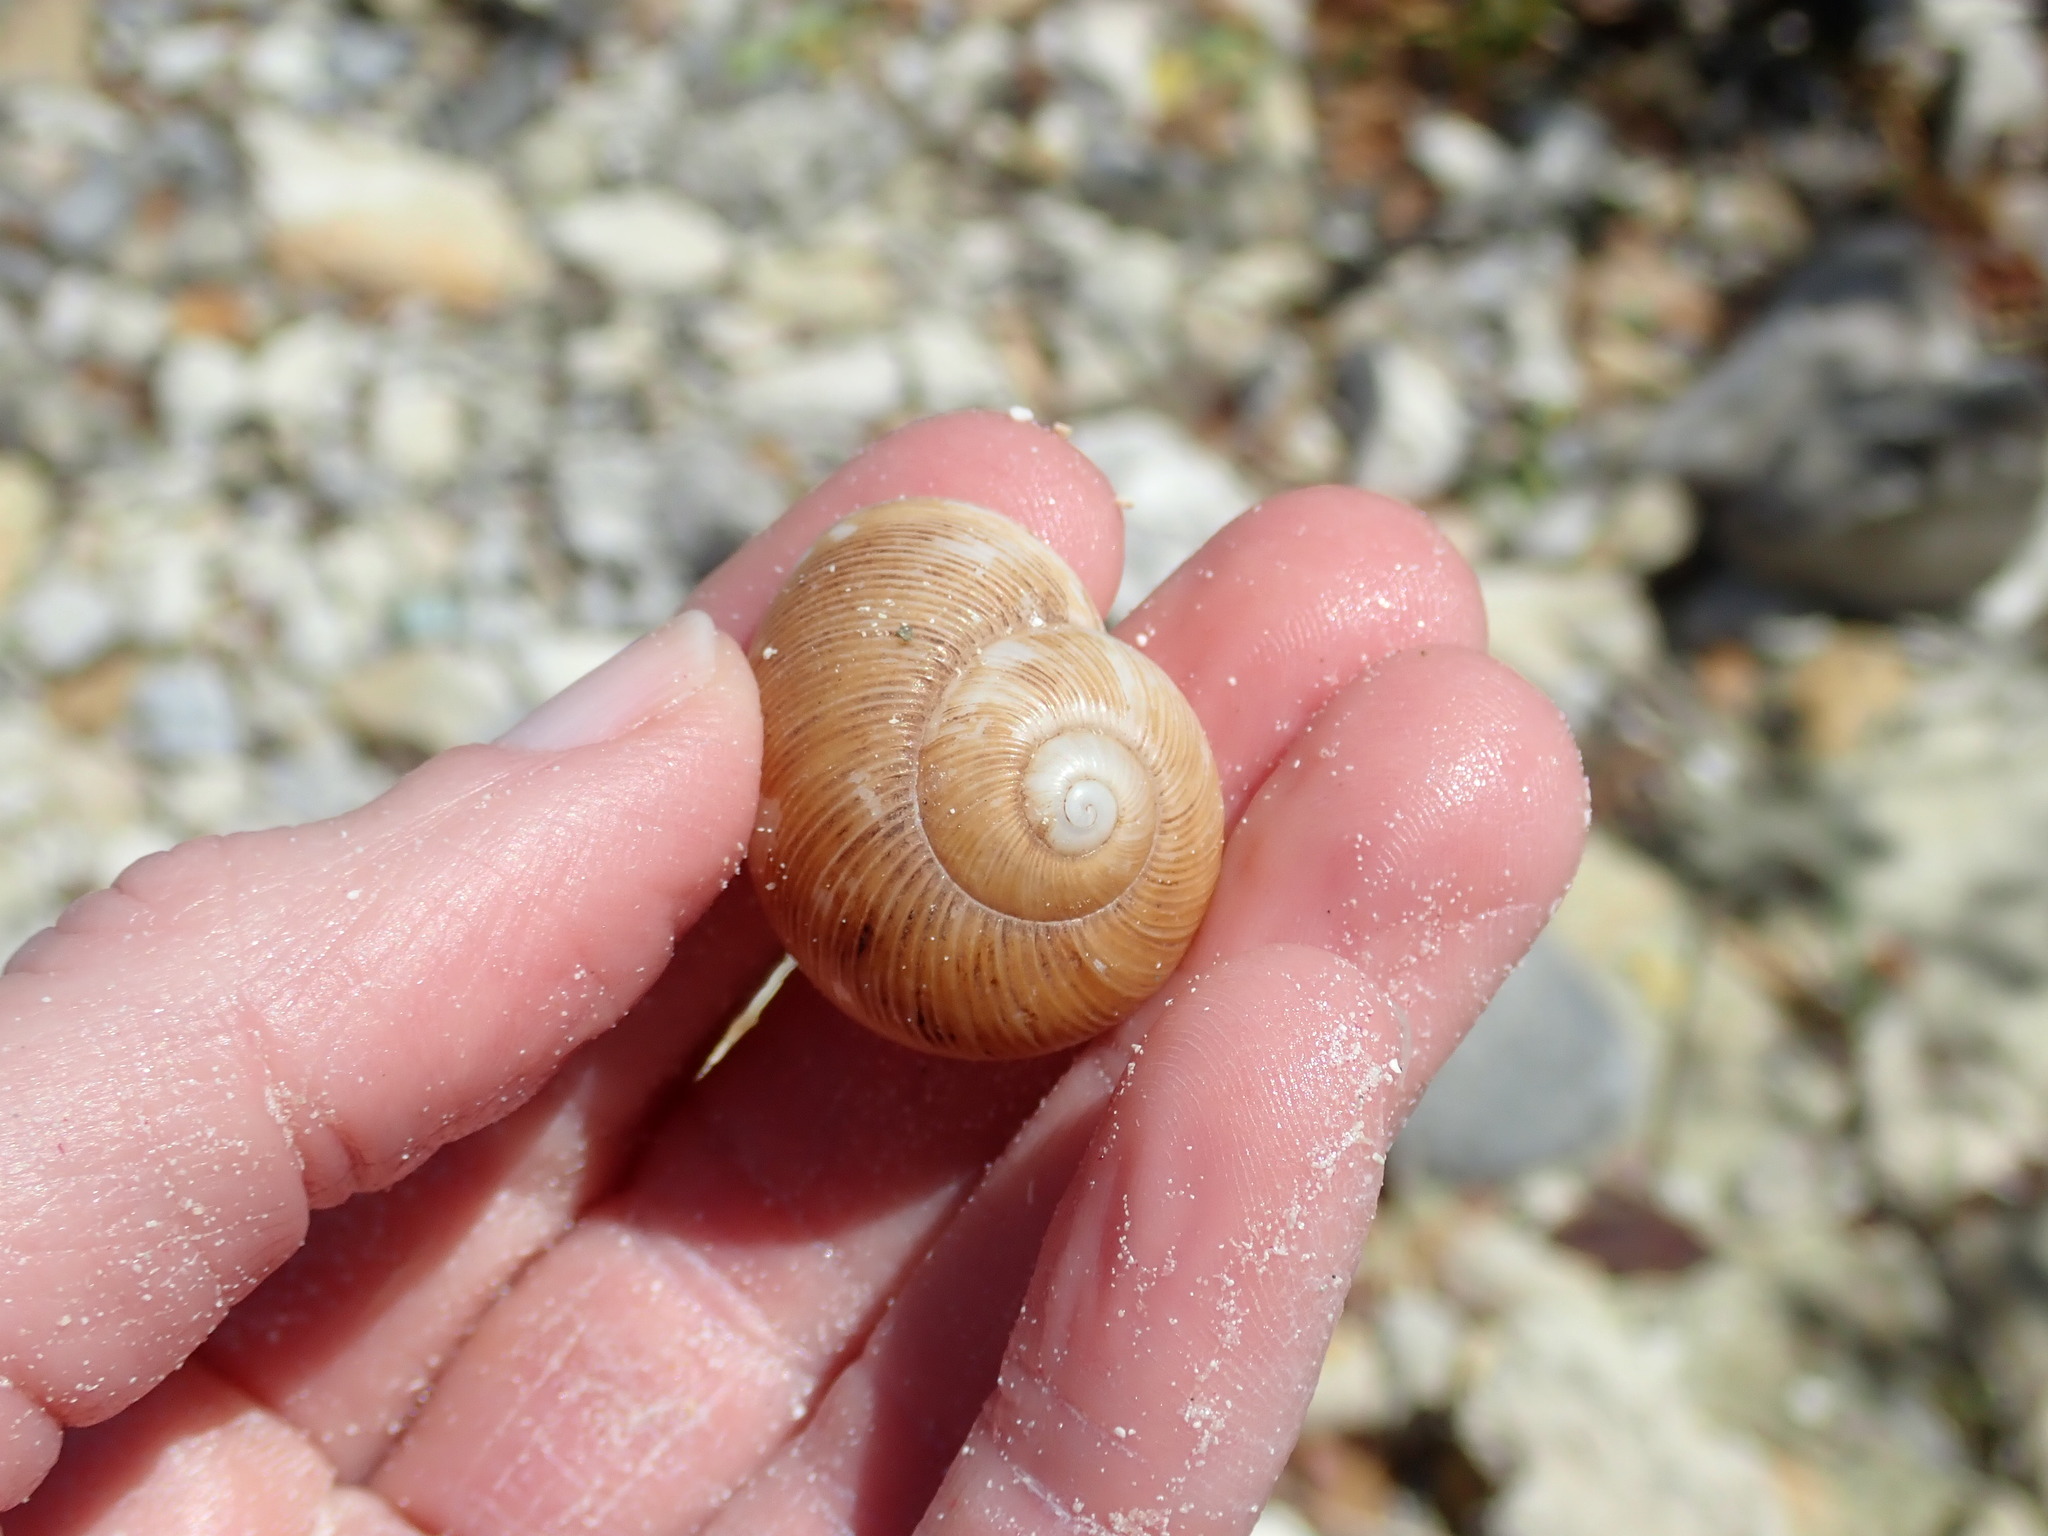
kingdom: Animalia
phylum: Mollusca
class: Gastropoda
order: Stylommatophora
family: Zachrysiidae
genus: Zachrysia
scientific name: Zachrysia provisoria
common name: Garden zachrysia
